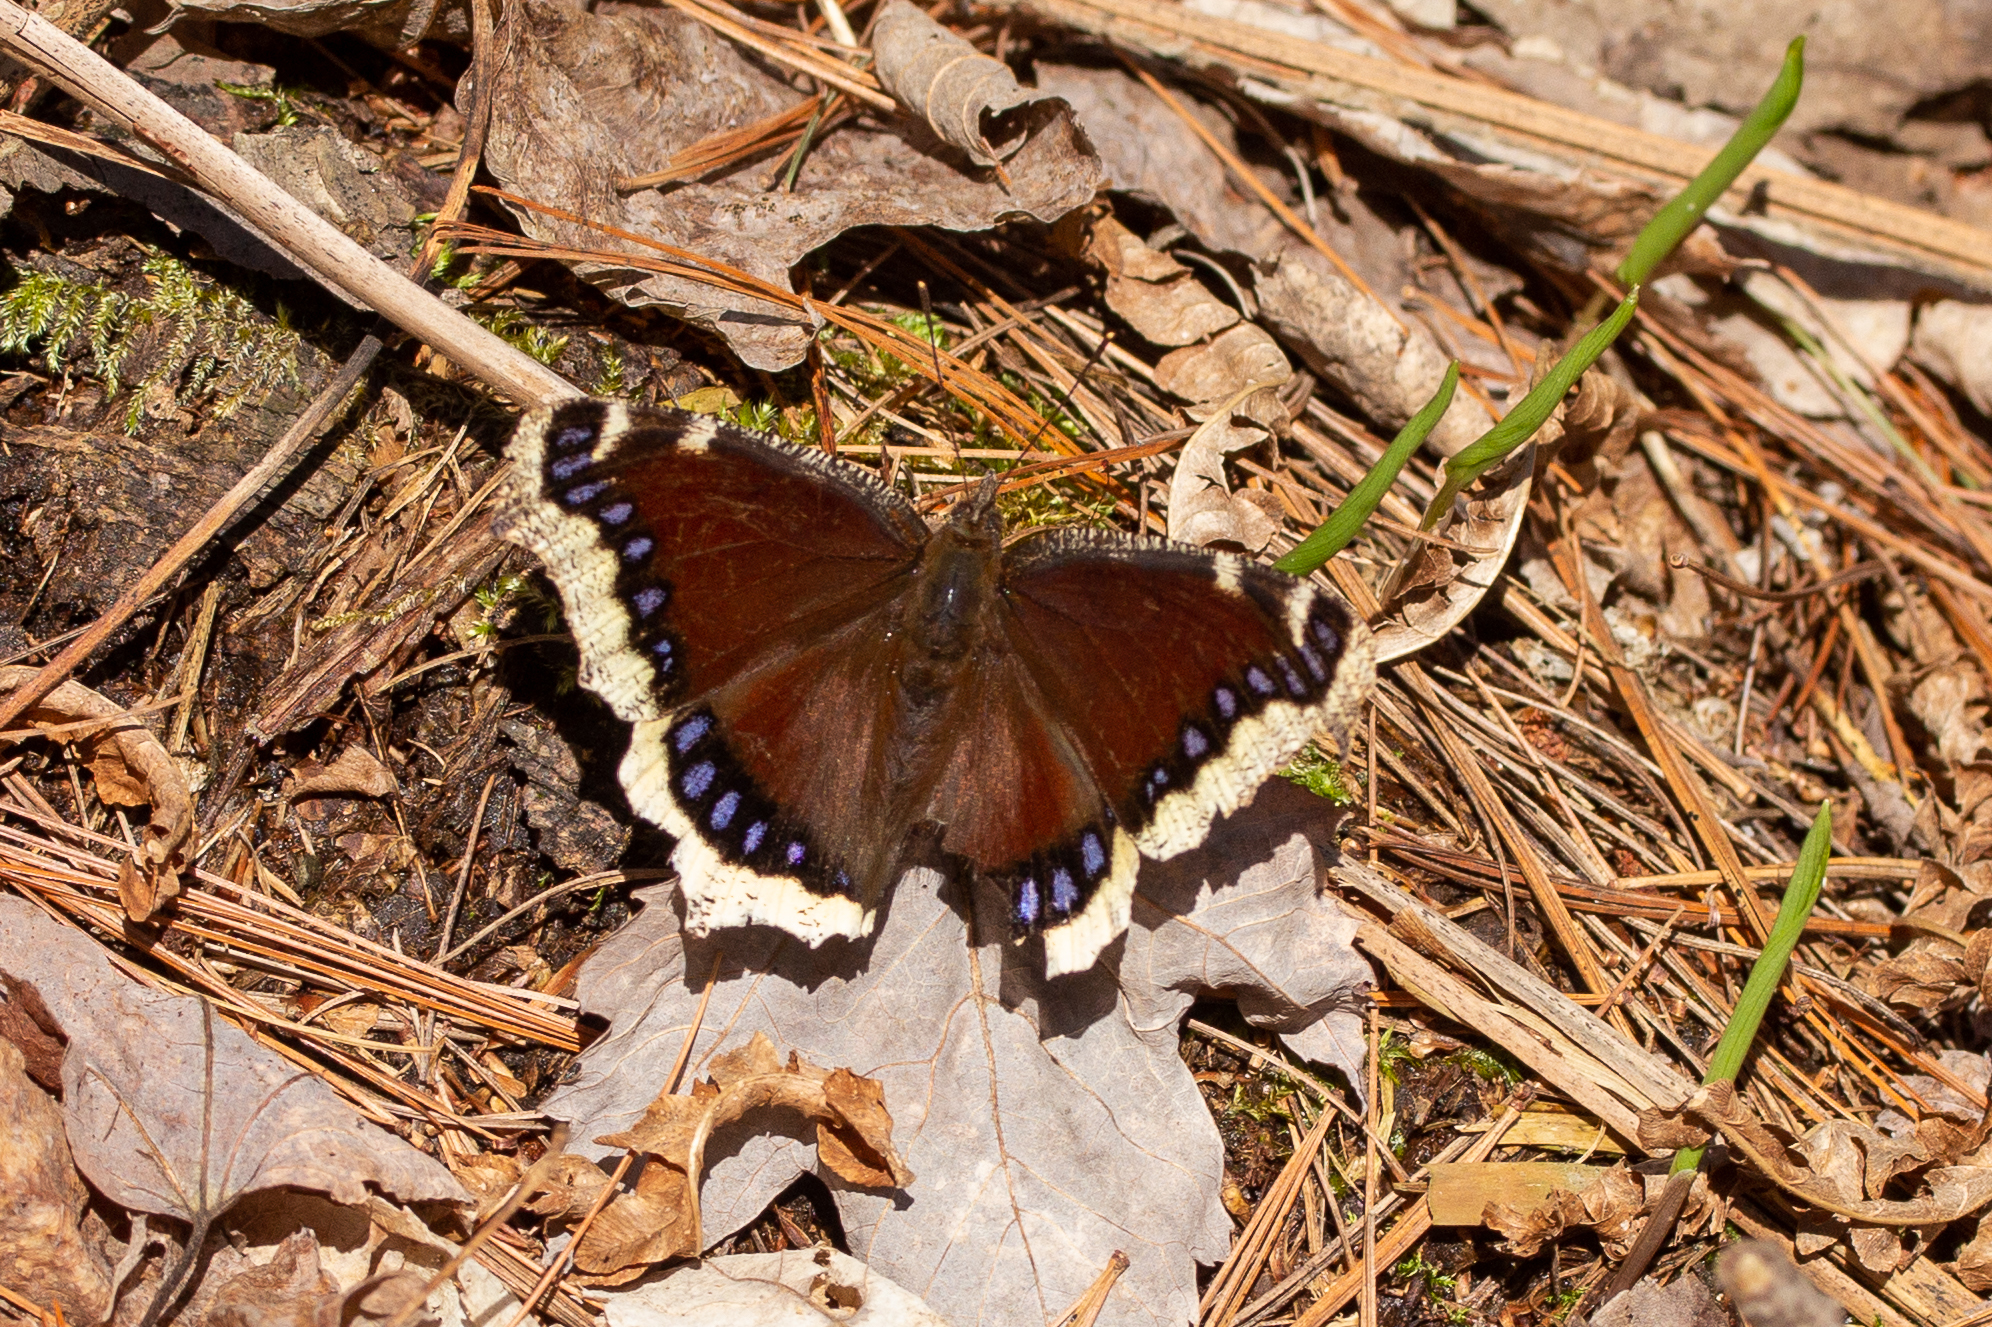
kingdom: Animalia
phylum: Arthropoda
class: Insecta
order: Lepidoptera
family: Nymphalidae
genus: Nymphalis
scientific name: Nymphalis antiopa
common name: Camberwell beauty
